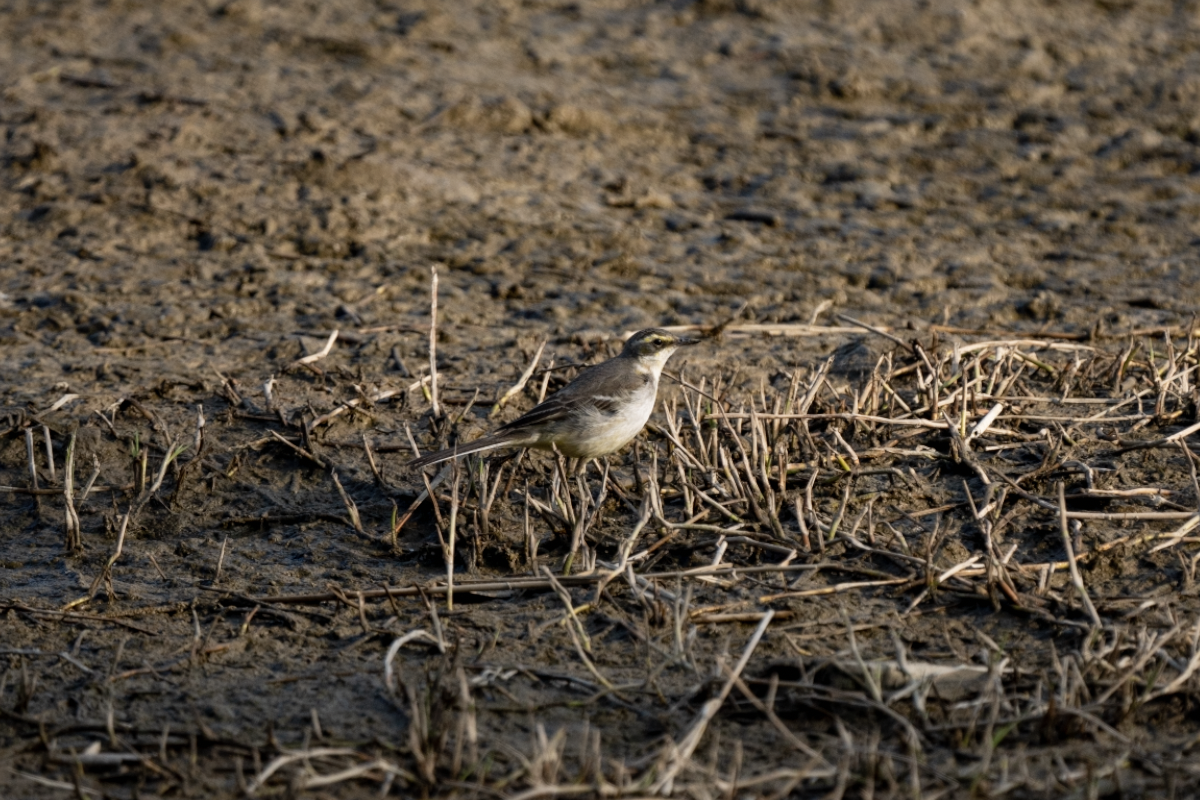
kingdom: Animalia
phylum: Chordata
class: Aves
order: Passeriformes
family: Motacillidae
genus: Motacilla
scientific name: Motacilla tschutschensis
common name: Eastern yellow wagtail
